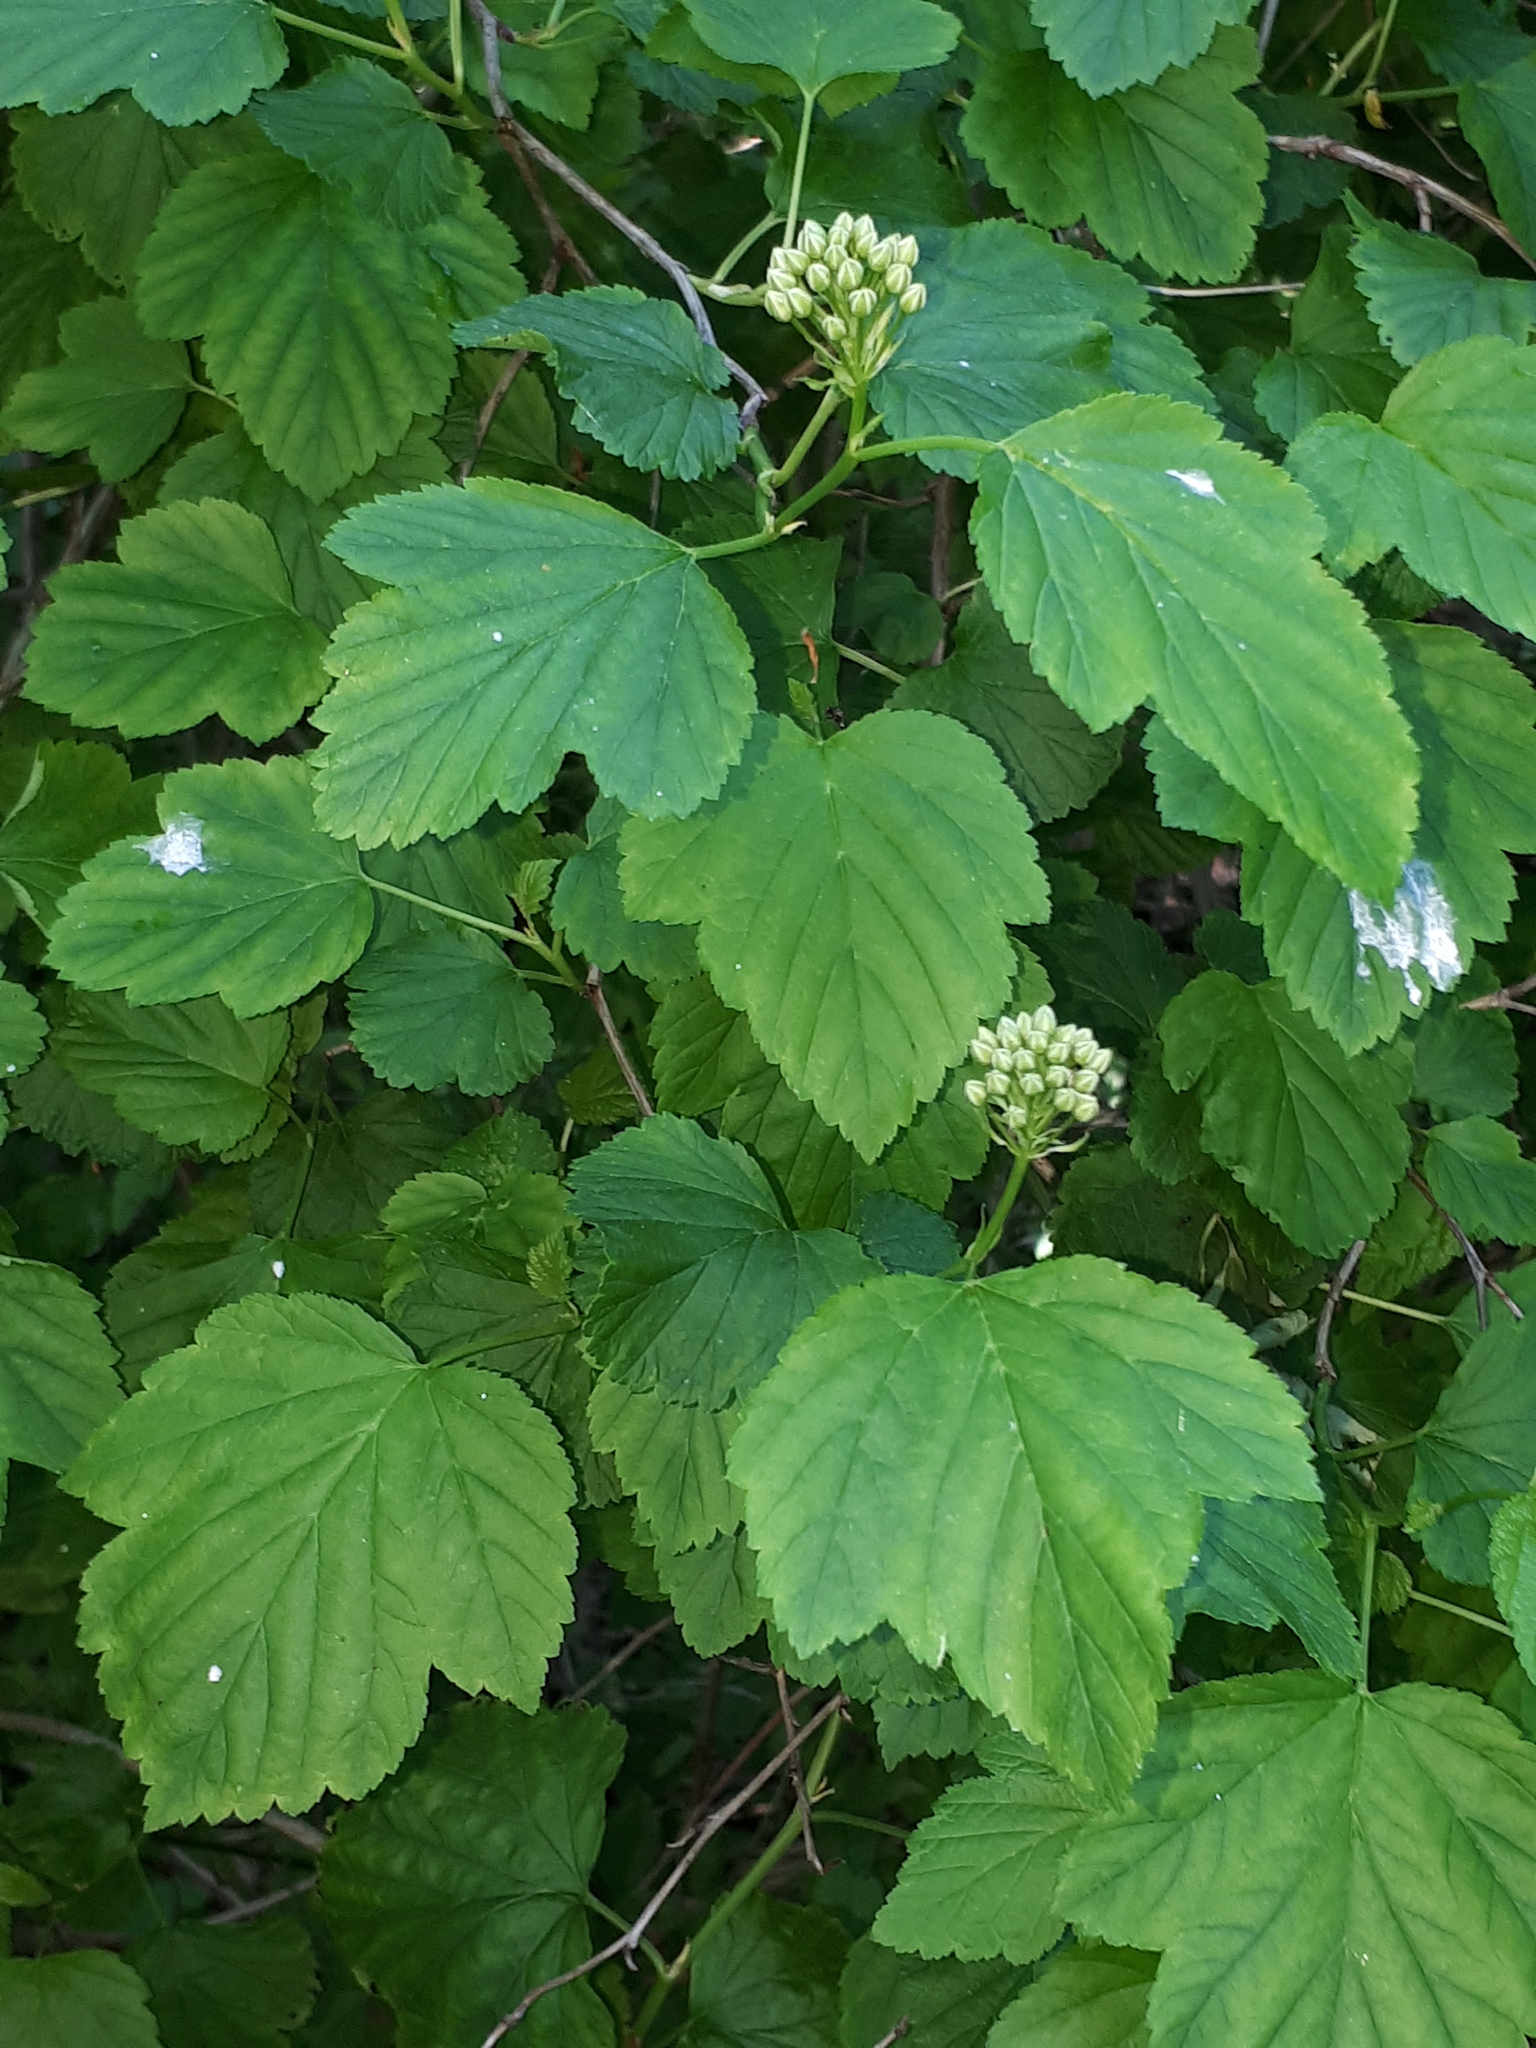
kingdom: Plantae
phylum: Tracheophyta
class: Magnoliopsida
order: Rosales
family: Rosaceae
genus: Physocarpus
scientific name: Physocarpus opulifolius
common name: Ninebark
